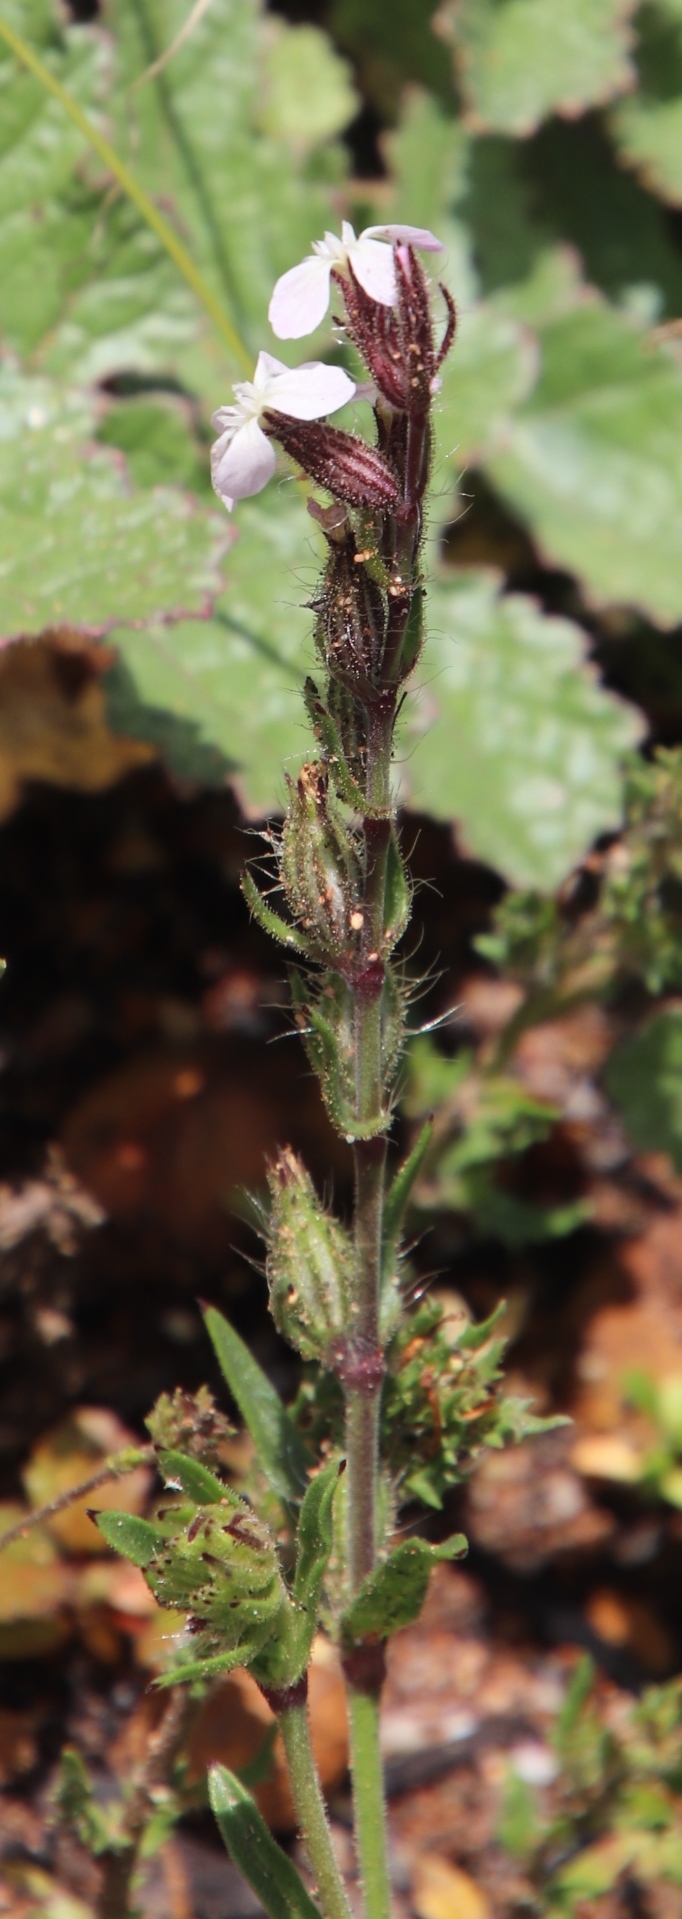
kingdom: Plantae
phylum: Tracheophyta
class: Magnoliopsida
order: Caryophyllales
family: Caryophyllaceae
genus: Silene
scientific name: Silene gallica
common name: Small-flowered catchfly
